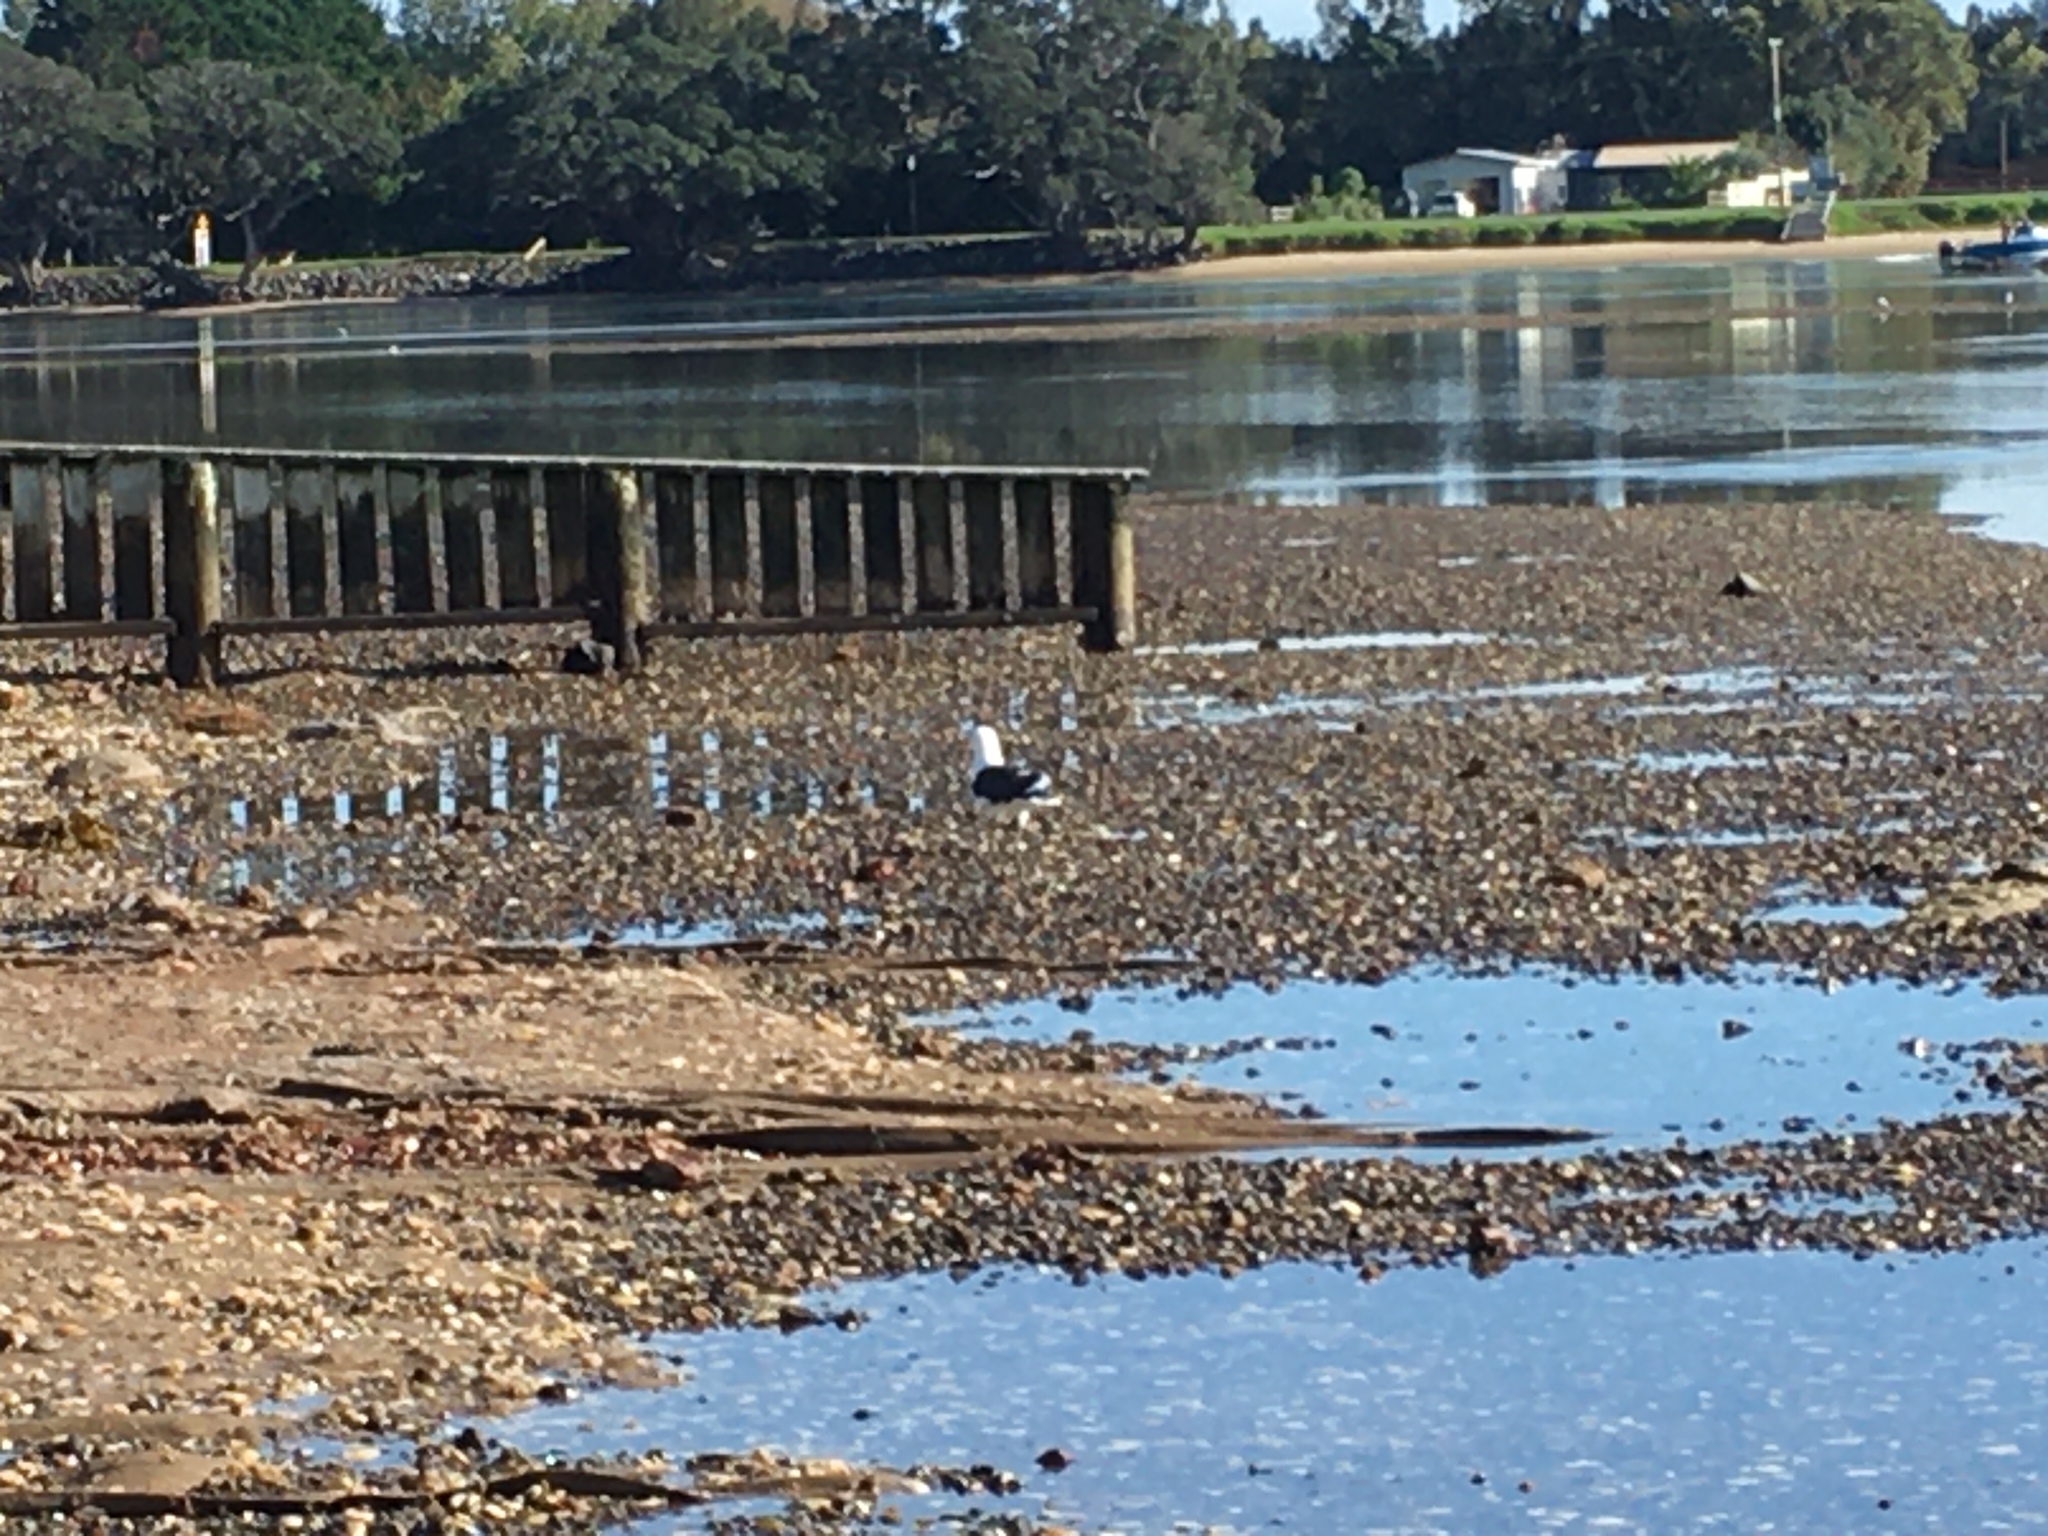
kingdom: Animalia
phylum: Chordata
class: Aves
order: Charadriiformes
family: Laridae
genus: Larus
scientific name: Larus dominicanus
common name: Kelp gull
